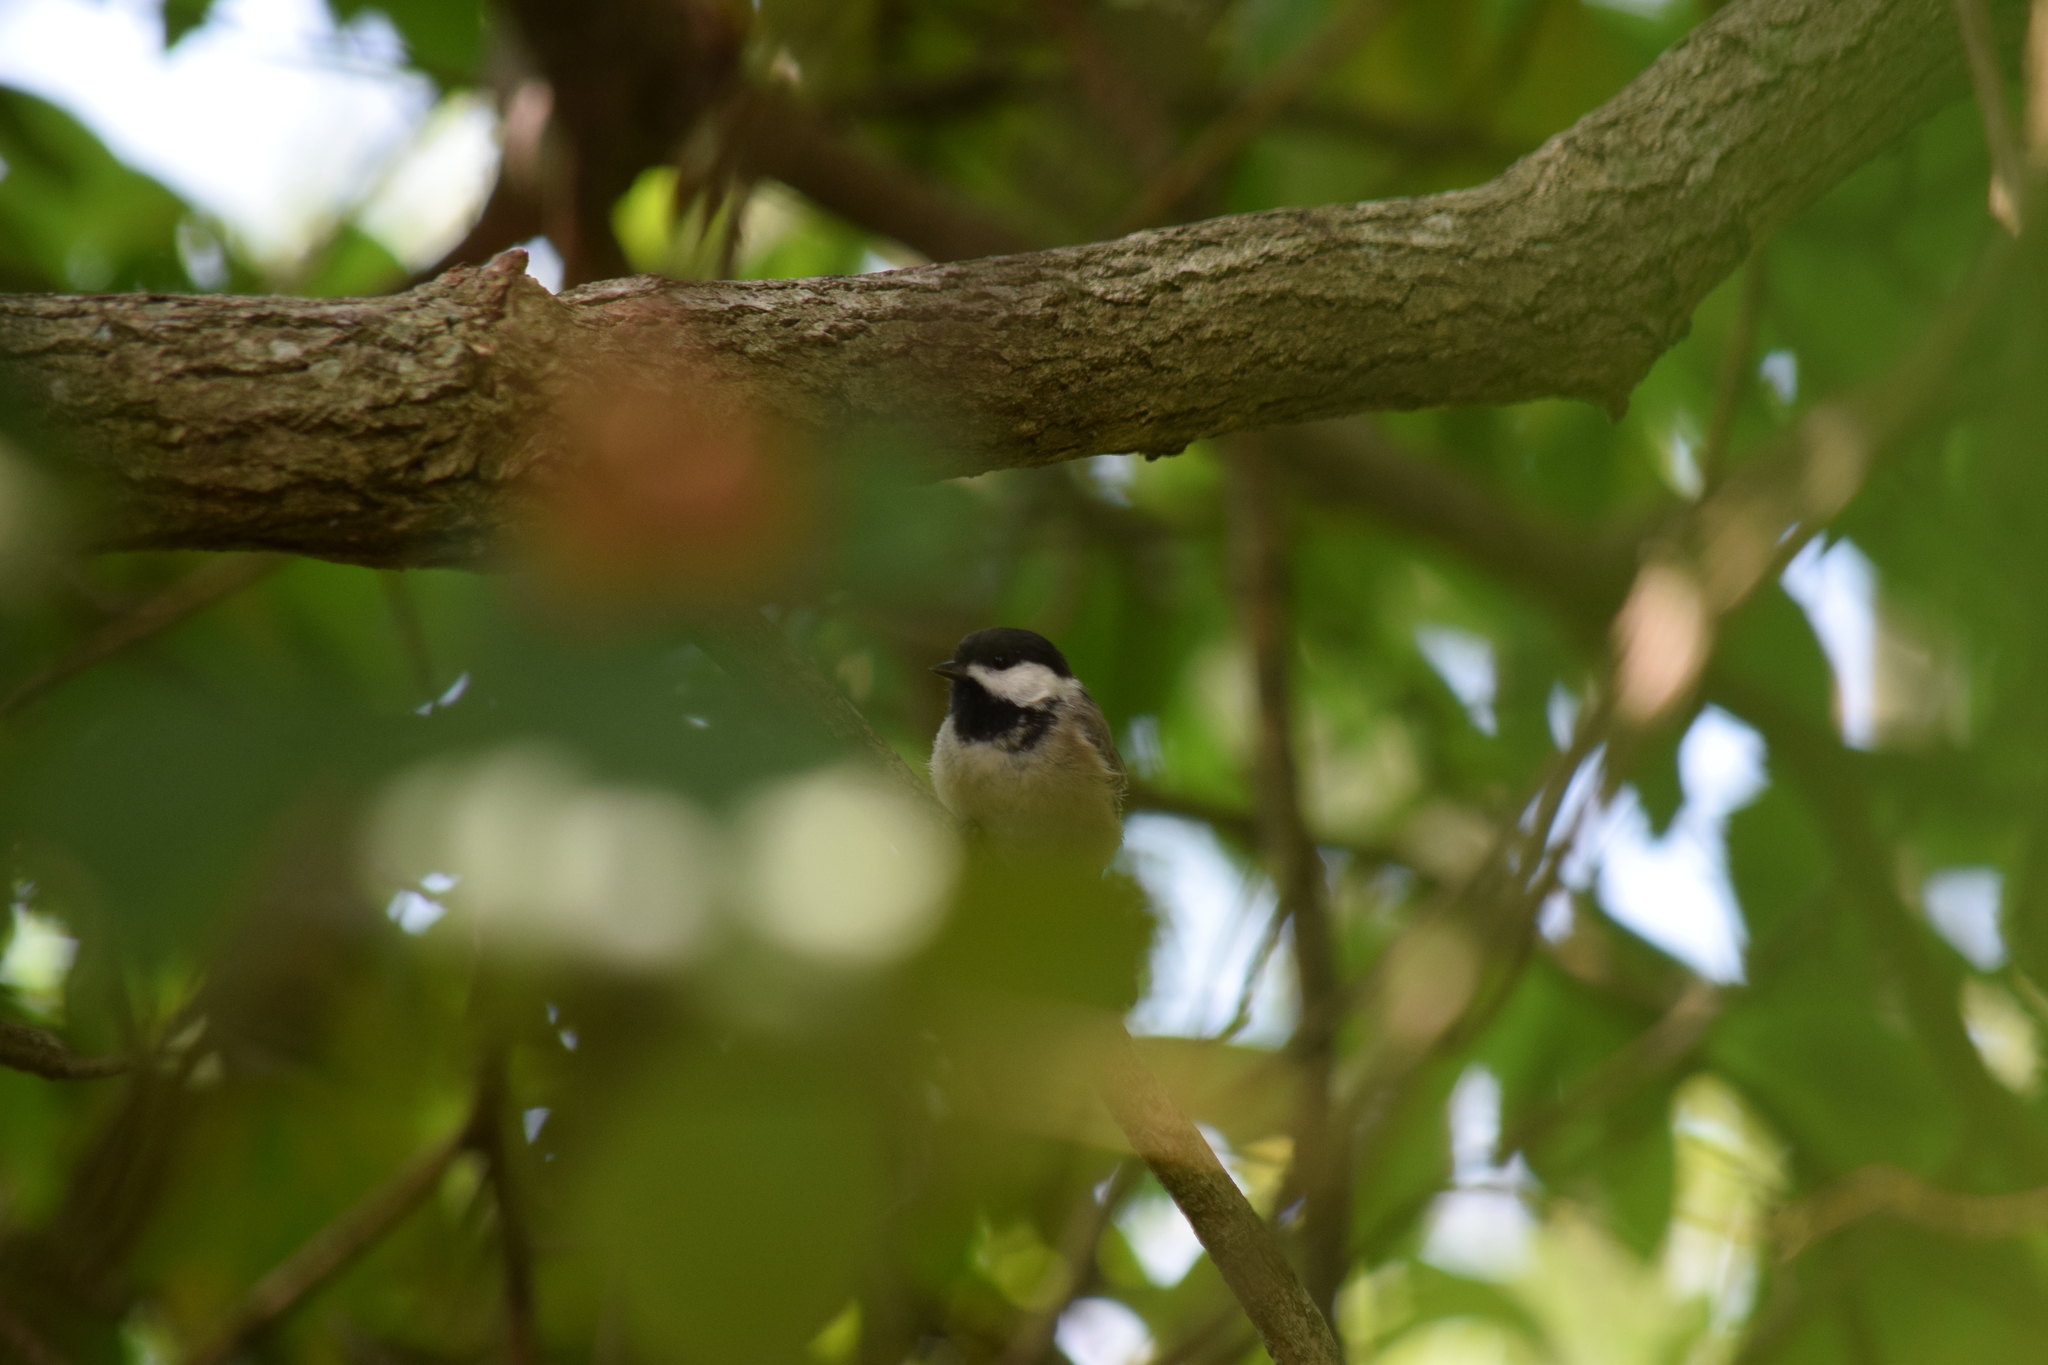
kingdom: Animalia
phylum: Chordata
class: Aves
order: Passeriformes
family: Paridae
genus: Poecile
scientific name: Poecile carolinensis
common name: Carolina chickadee
